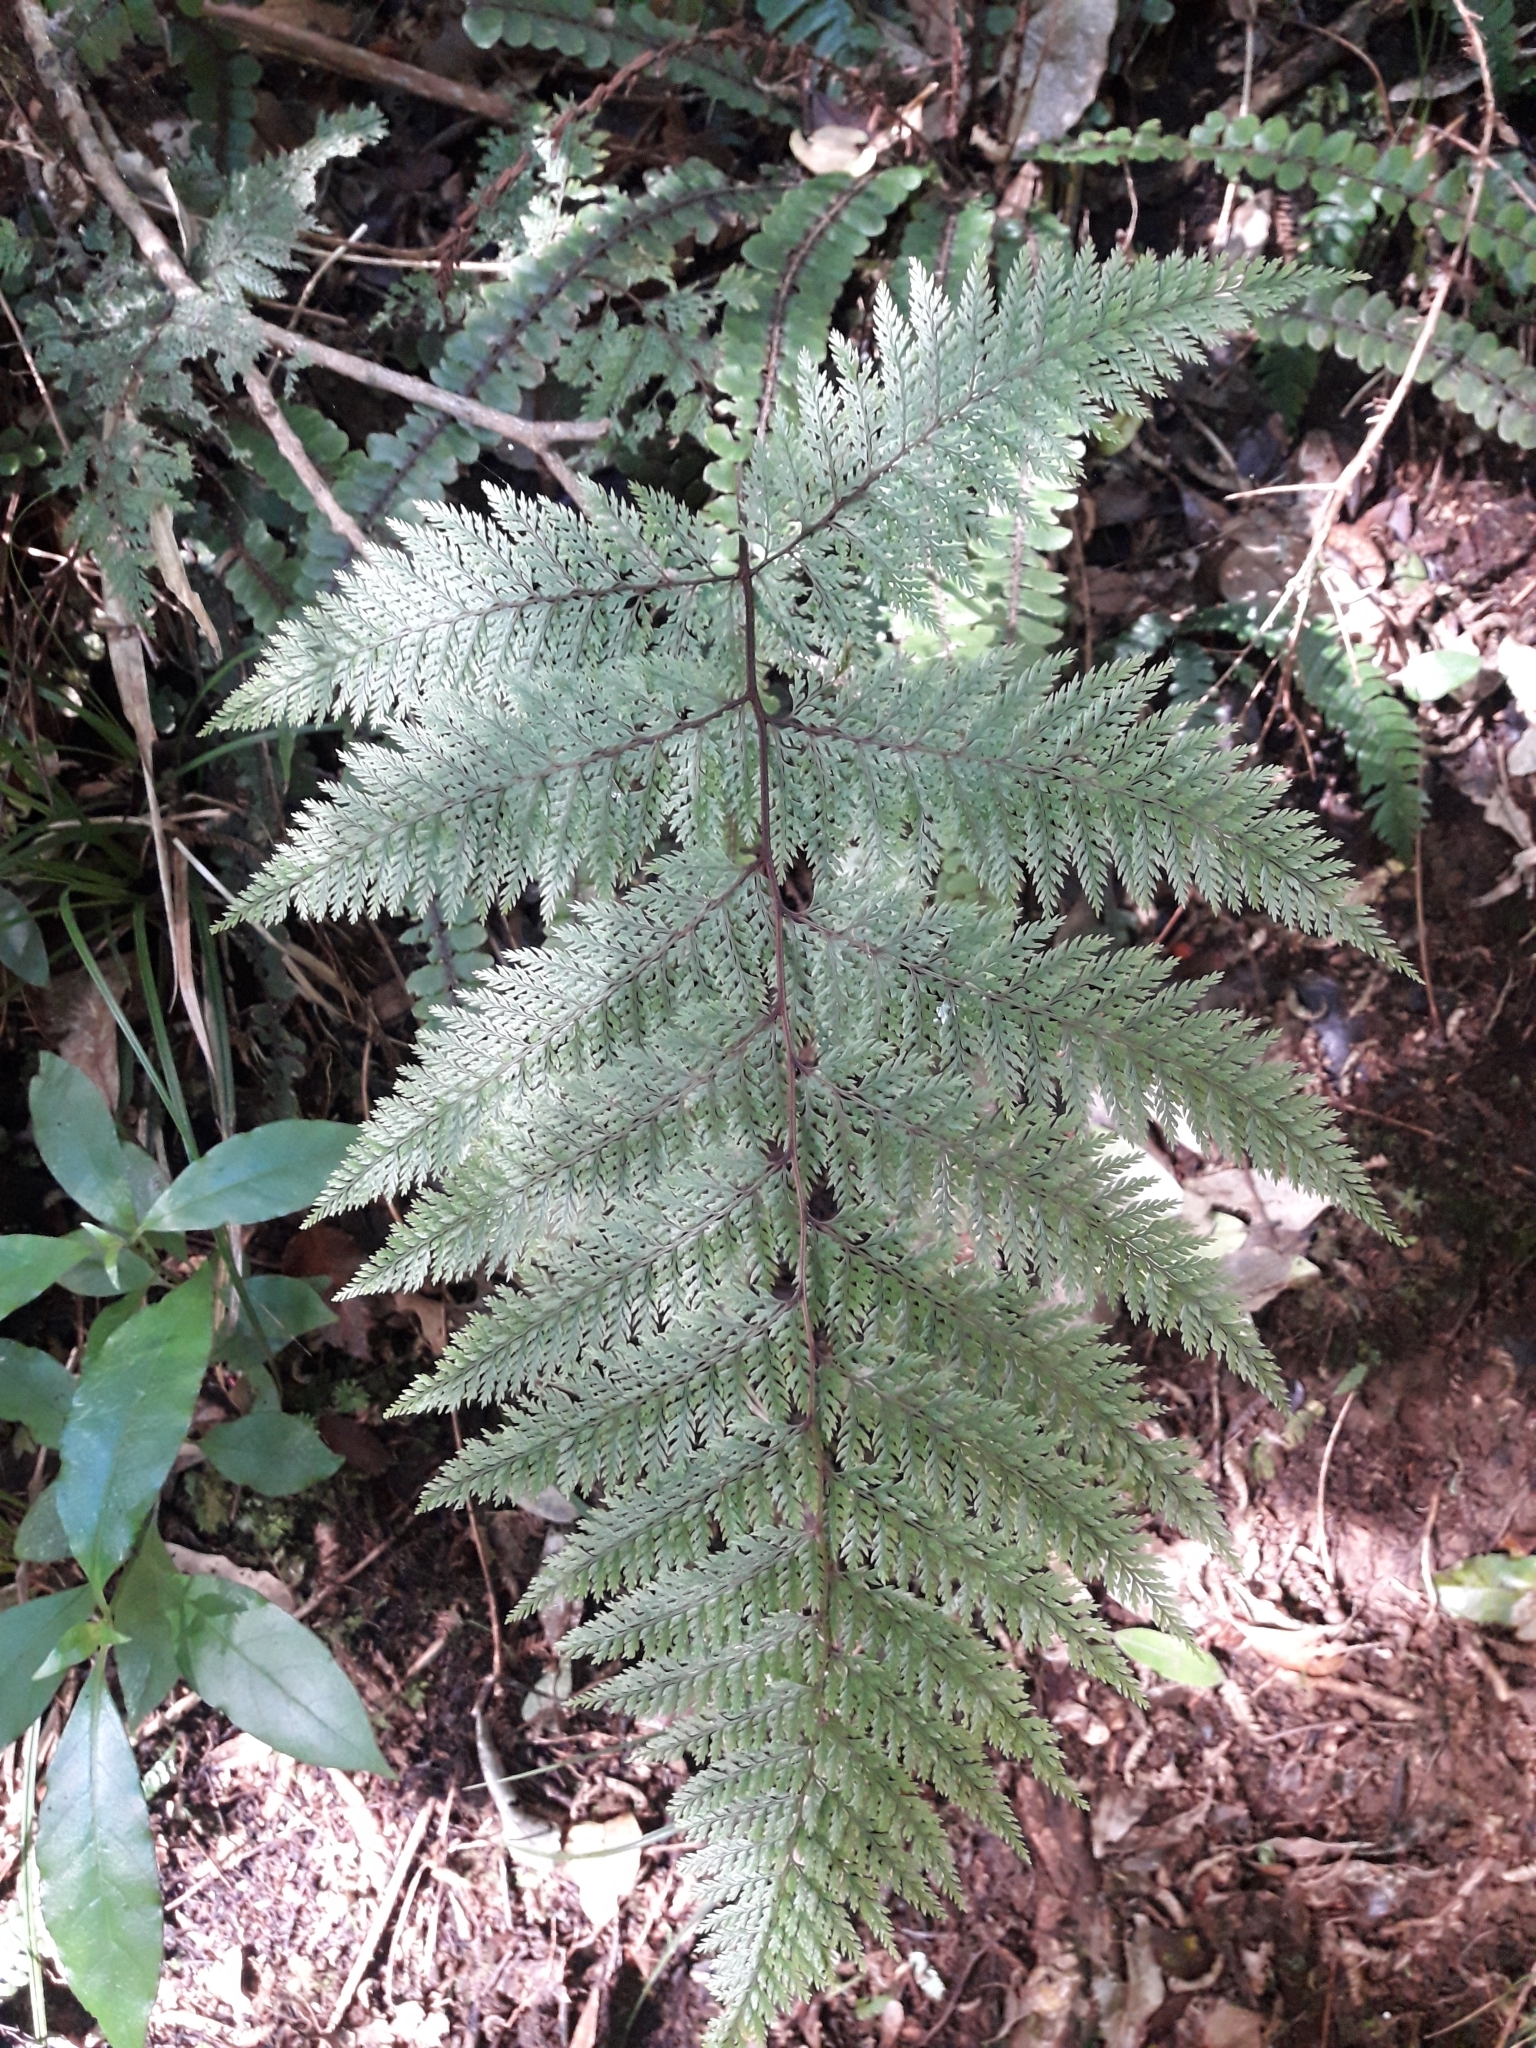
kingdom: Plantae
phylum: Tracheophyta
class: Polypodiopsida
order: Polypodiales
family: Dennstaedtiaceae
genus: Dennstaedtia
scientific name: Dennstaedtia novae-zelandiae
